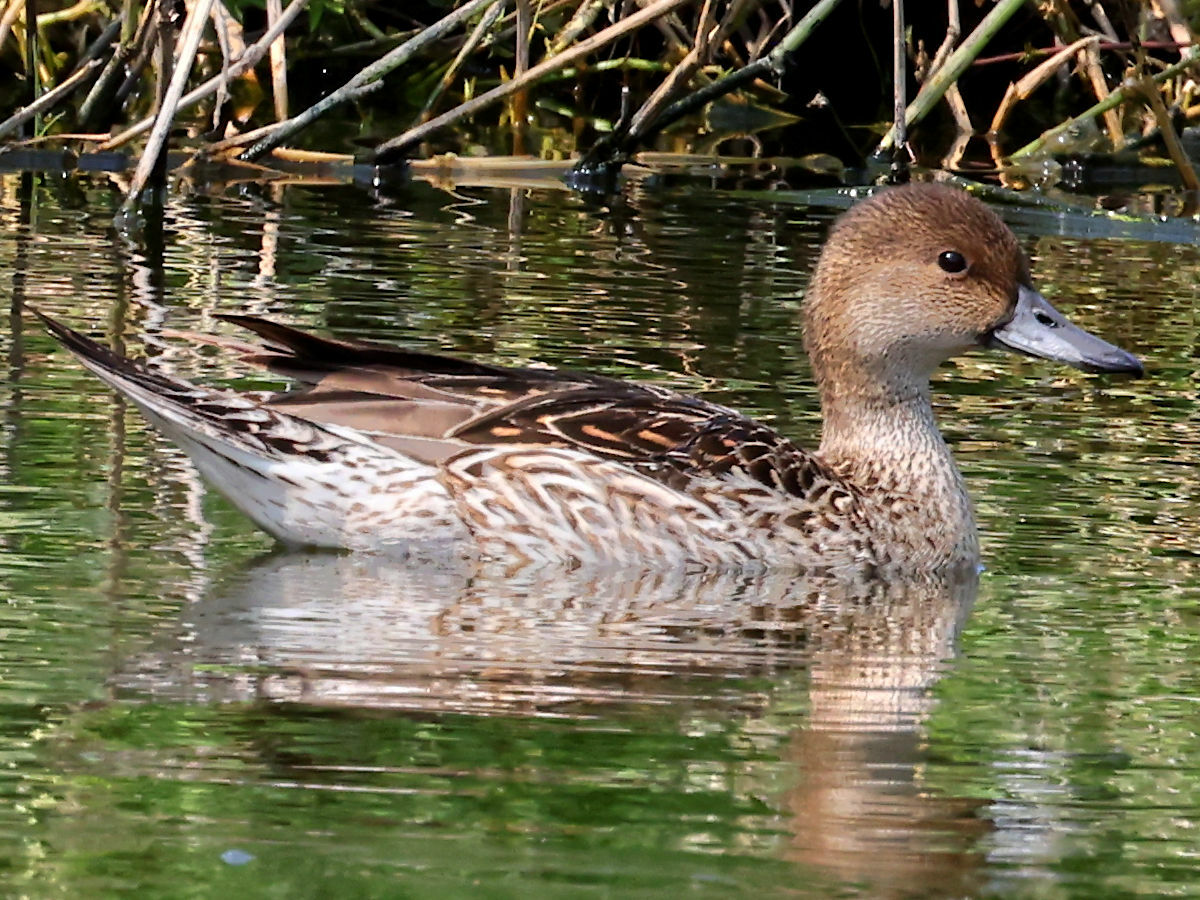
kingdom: Animalia
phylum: Chordata
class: Aves
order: Anseriformes
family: Anatidae
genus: Anas
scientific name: Anas acuta
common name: Northern pintail
